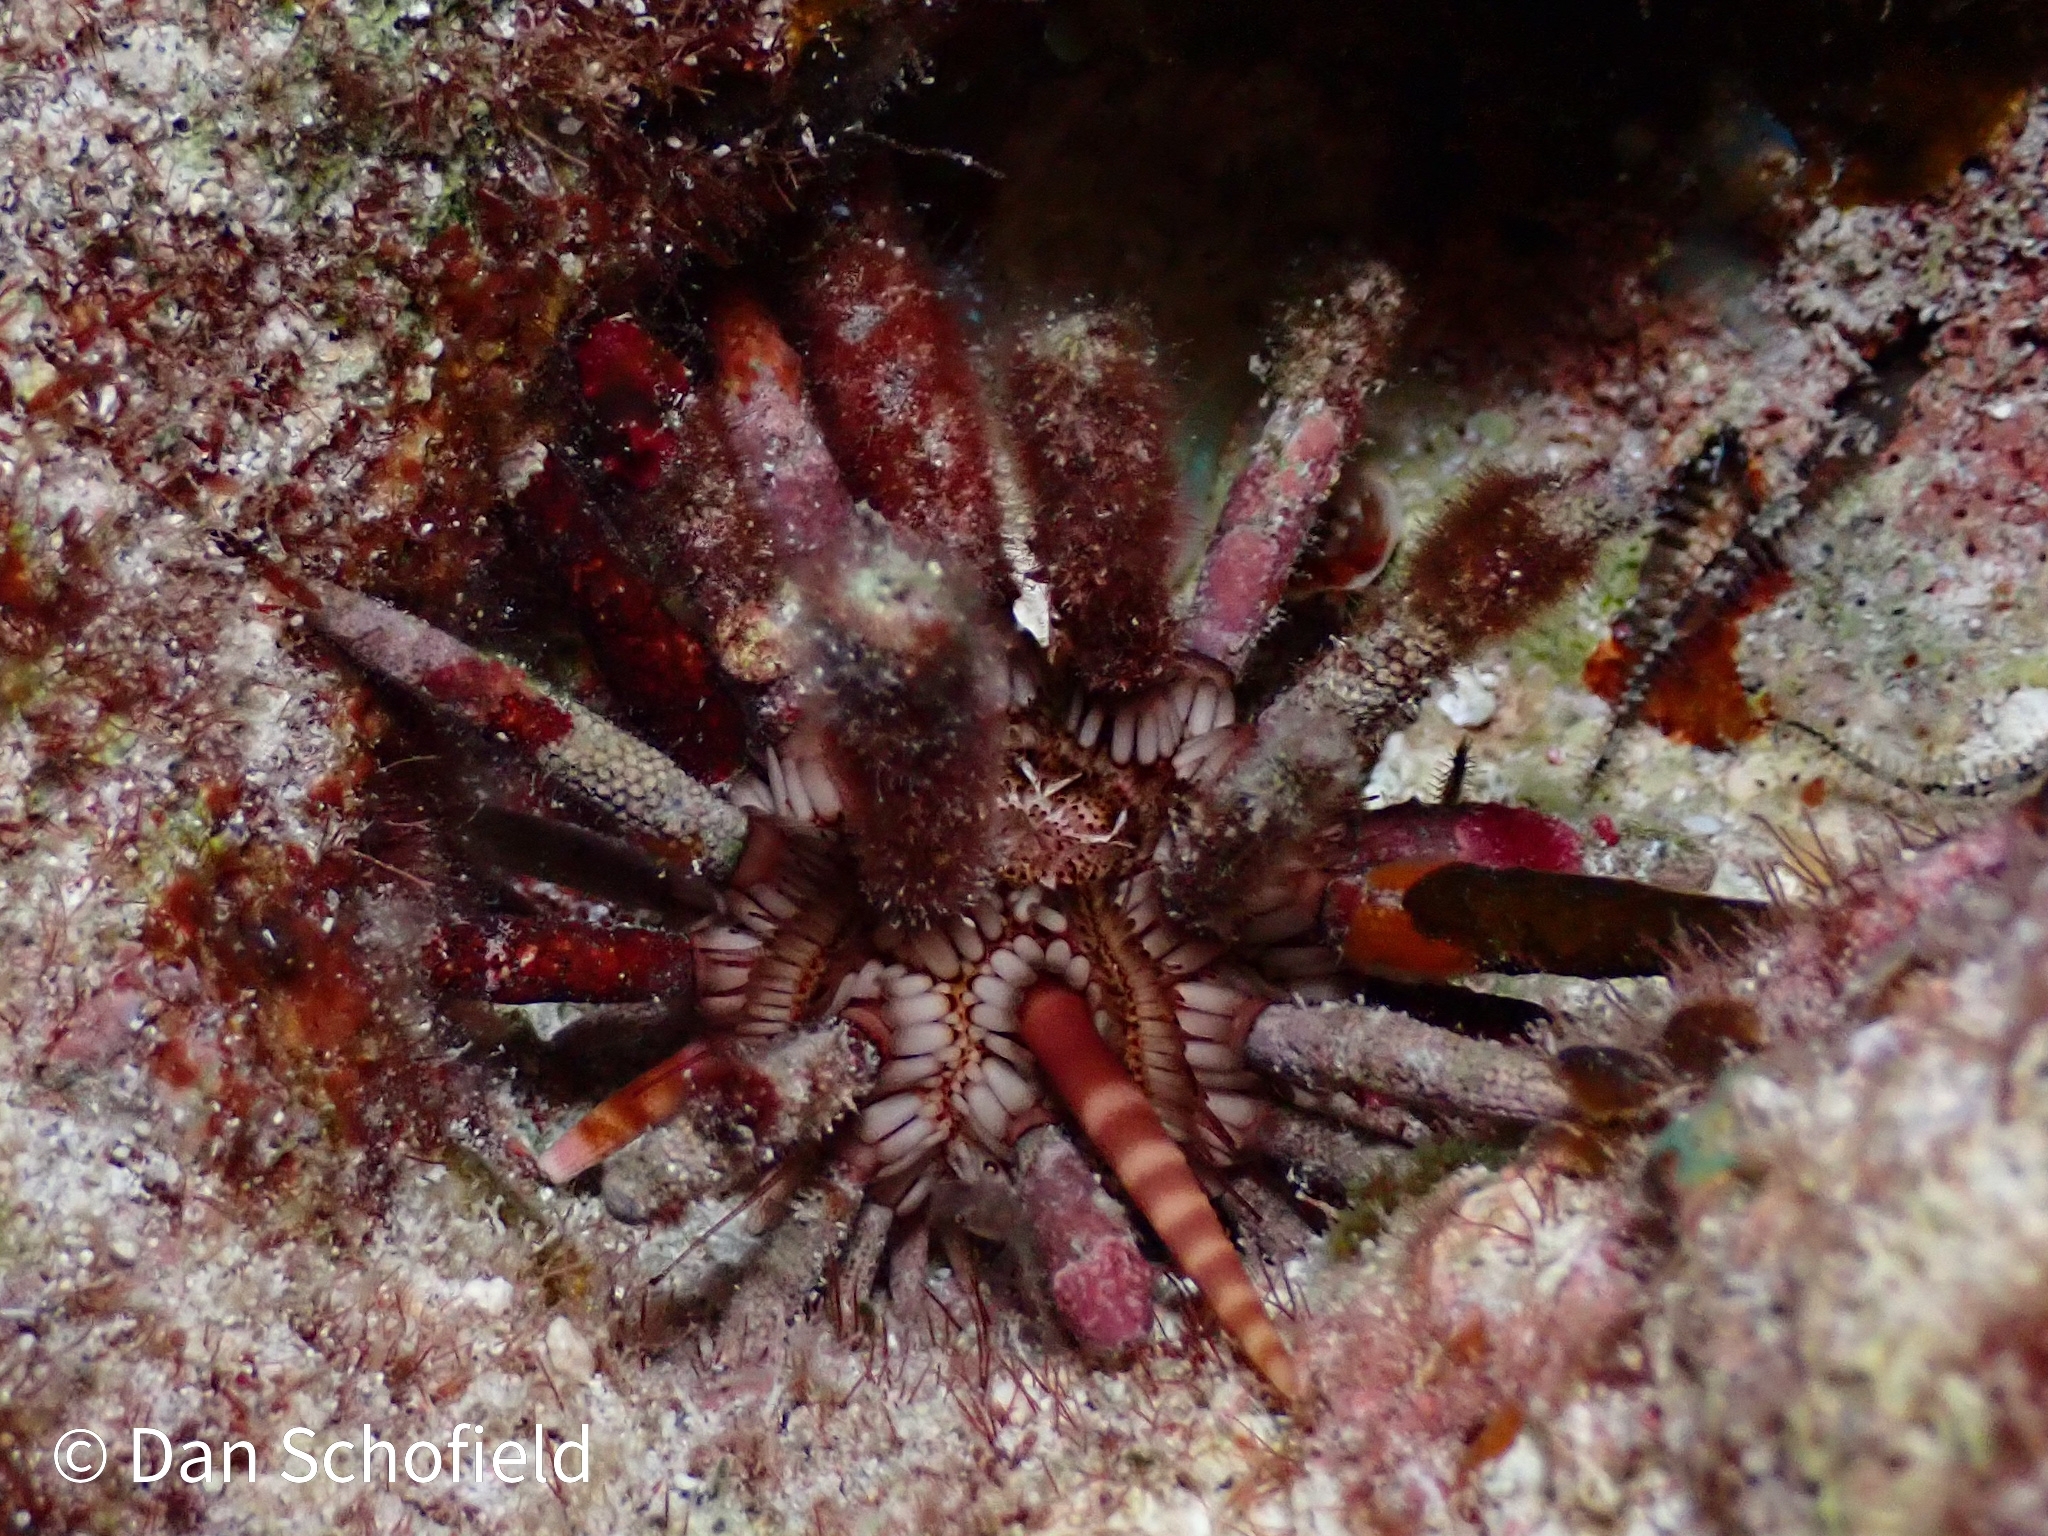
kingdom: Animalia
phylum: Echinodermata
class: Echinoidea
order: Cidaroida
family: Cidaridae
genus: Eucidaris
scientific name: Eucidaris tribuloides
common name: Slate pencil urchin
